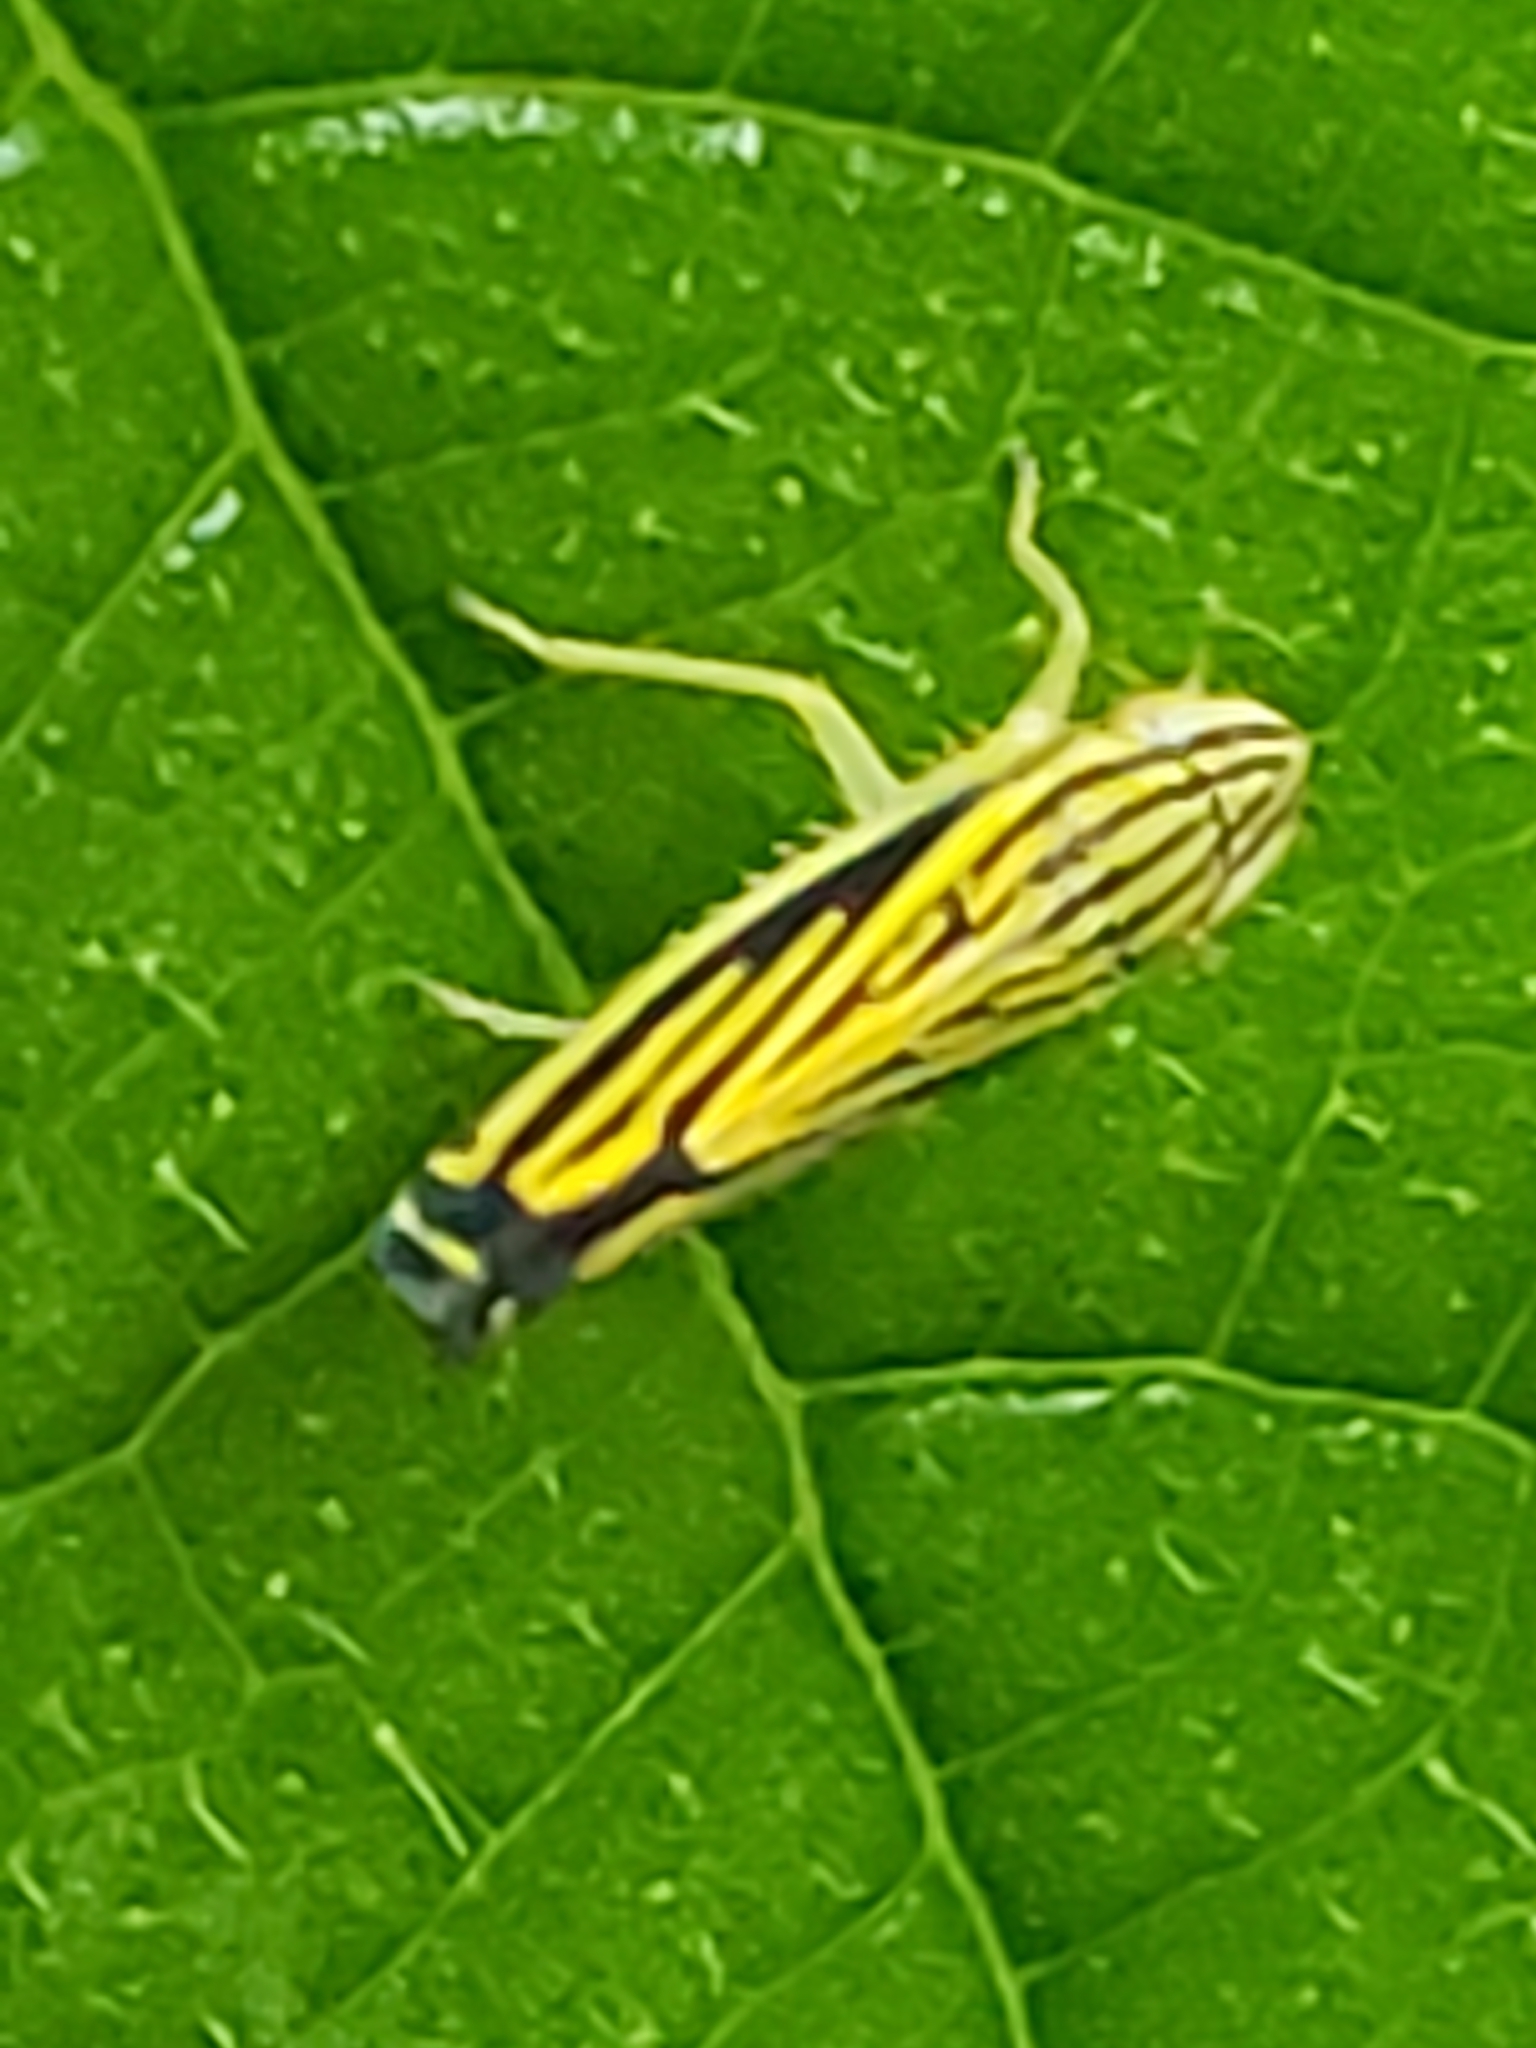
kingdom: Animalia
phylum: Arthropoda
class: Insecta
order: Hemiptera
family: Cicadellidae
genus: Sibovia
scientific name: Sibovia occatoria
